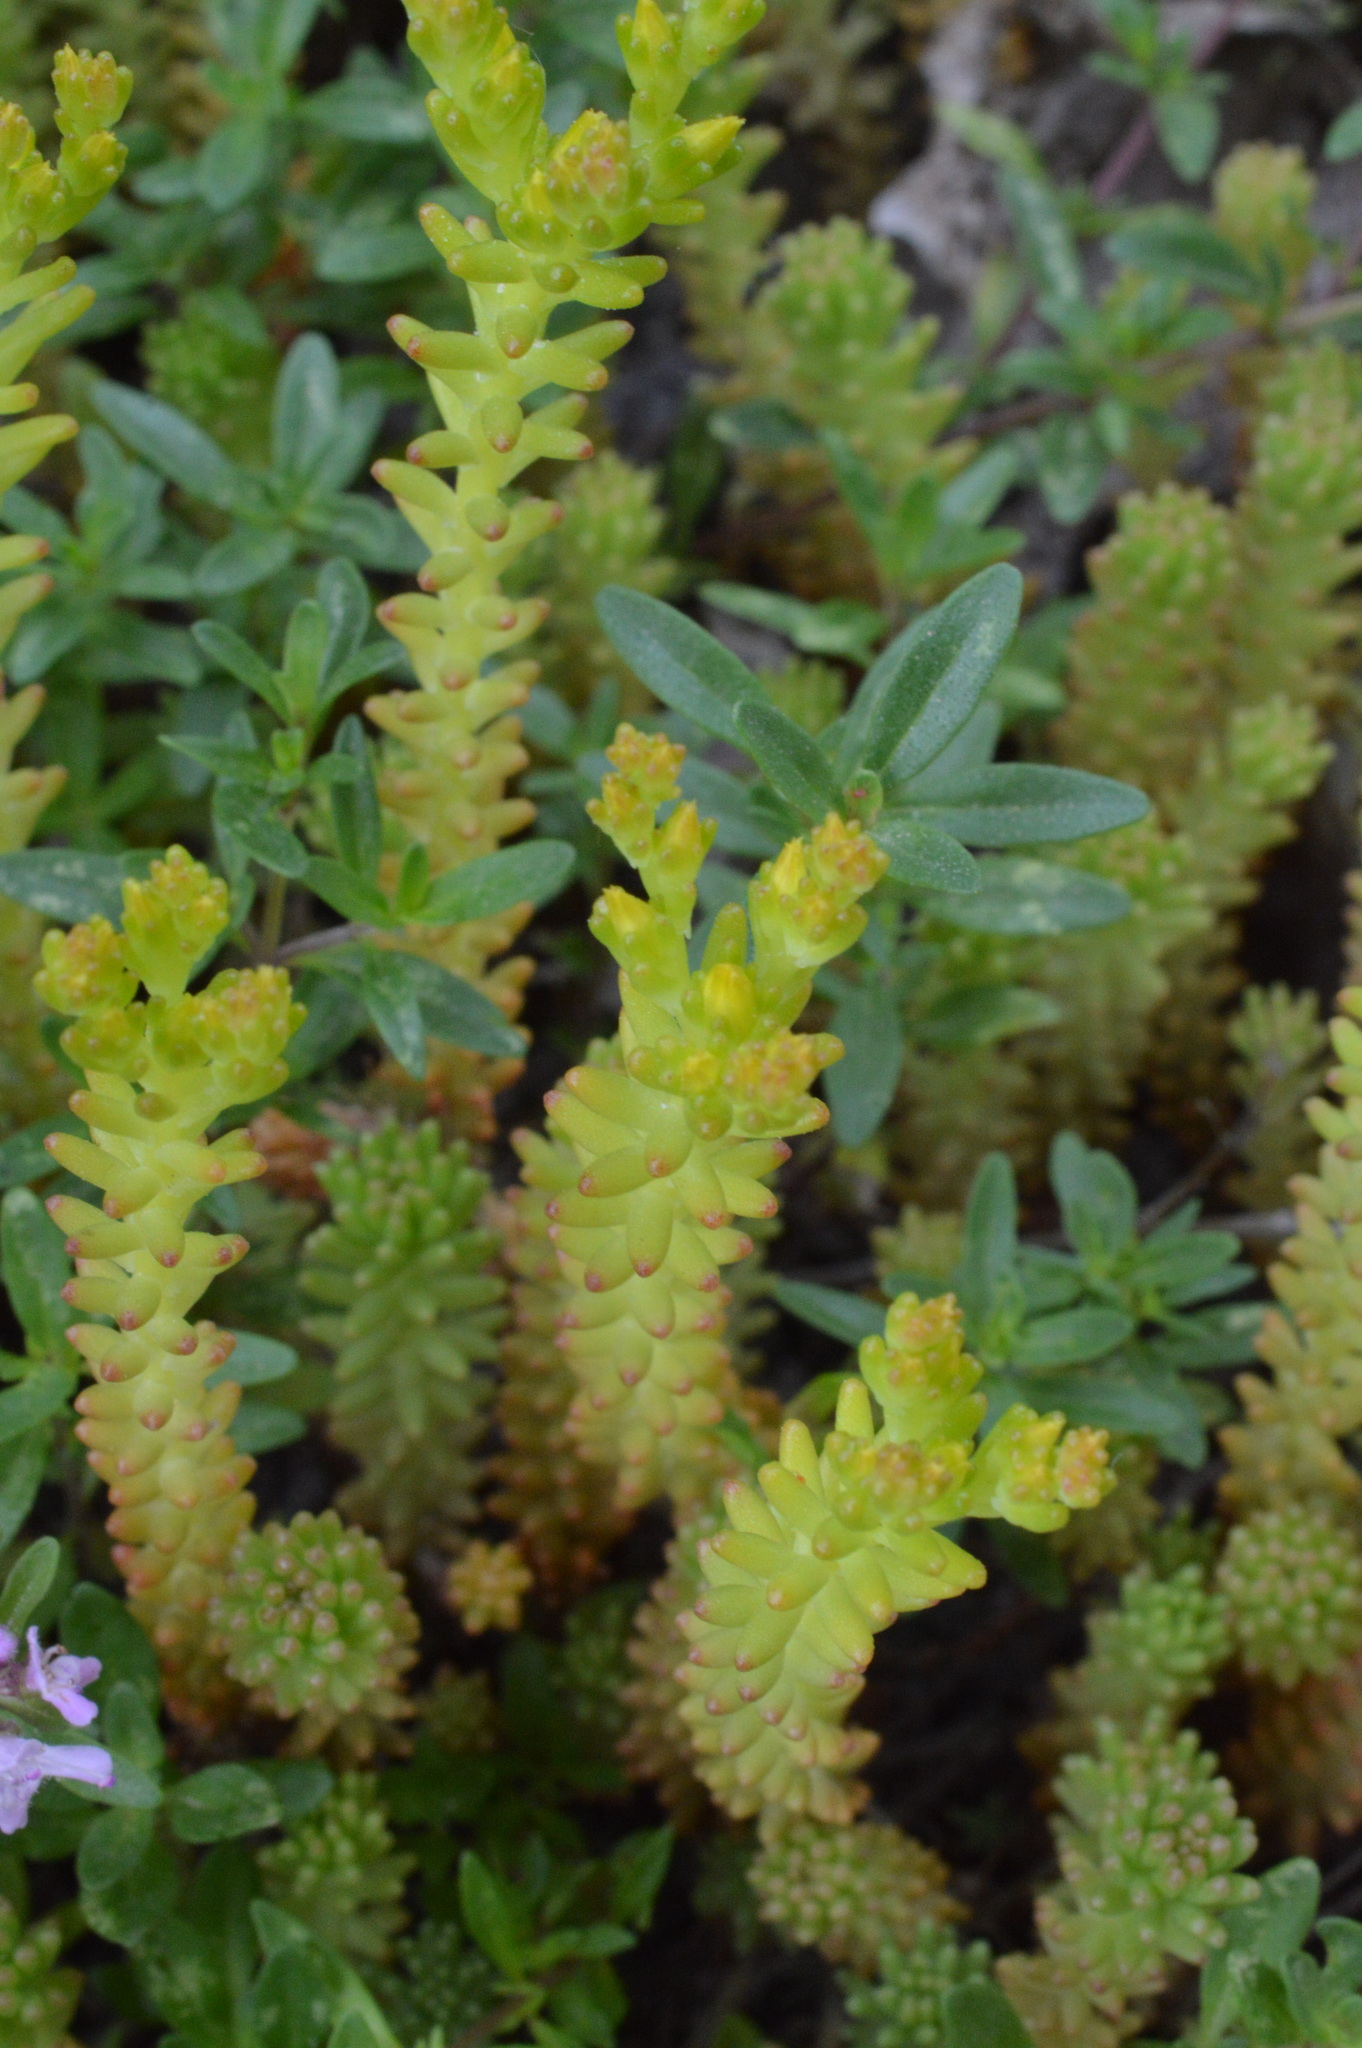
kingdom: Plantae
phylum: Tracheophyta
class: Magnoliopsida
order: Saxifragales
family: Crassulaceae
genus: Sedum
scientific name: Sedum sexangulare
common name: Tasteless stonecrop
